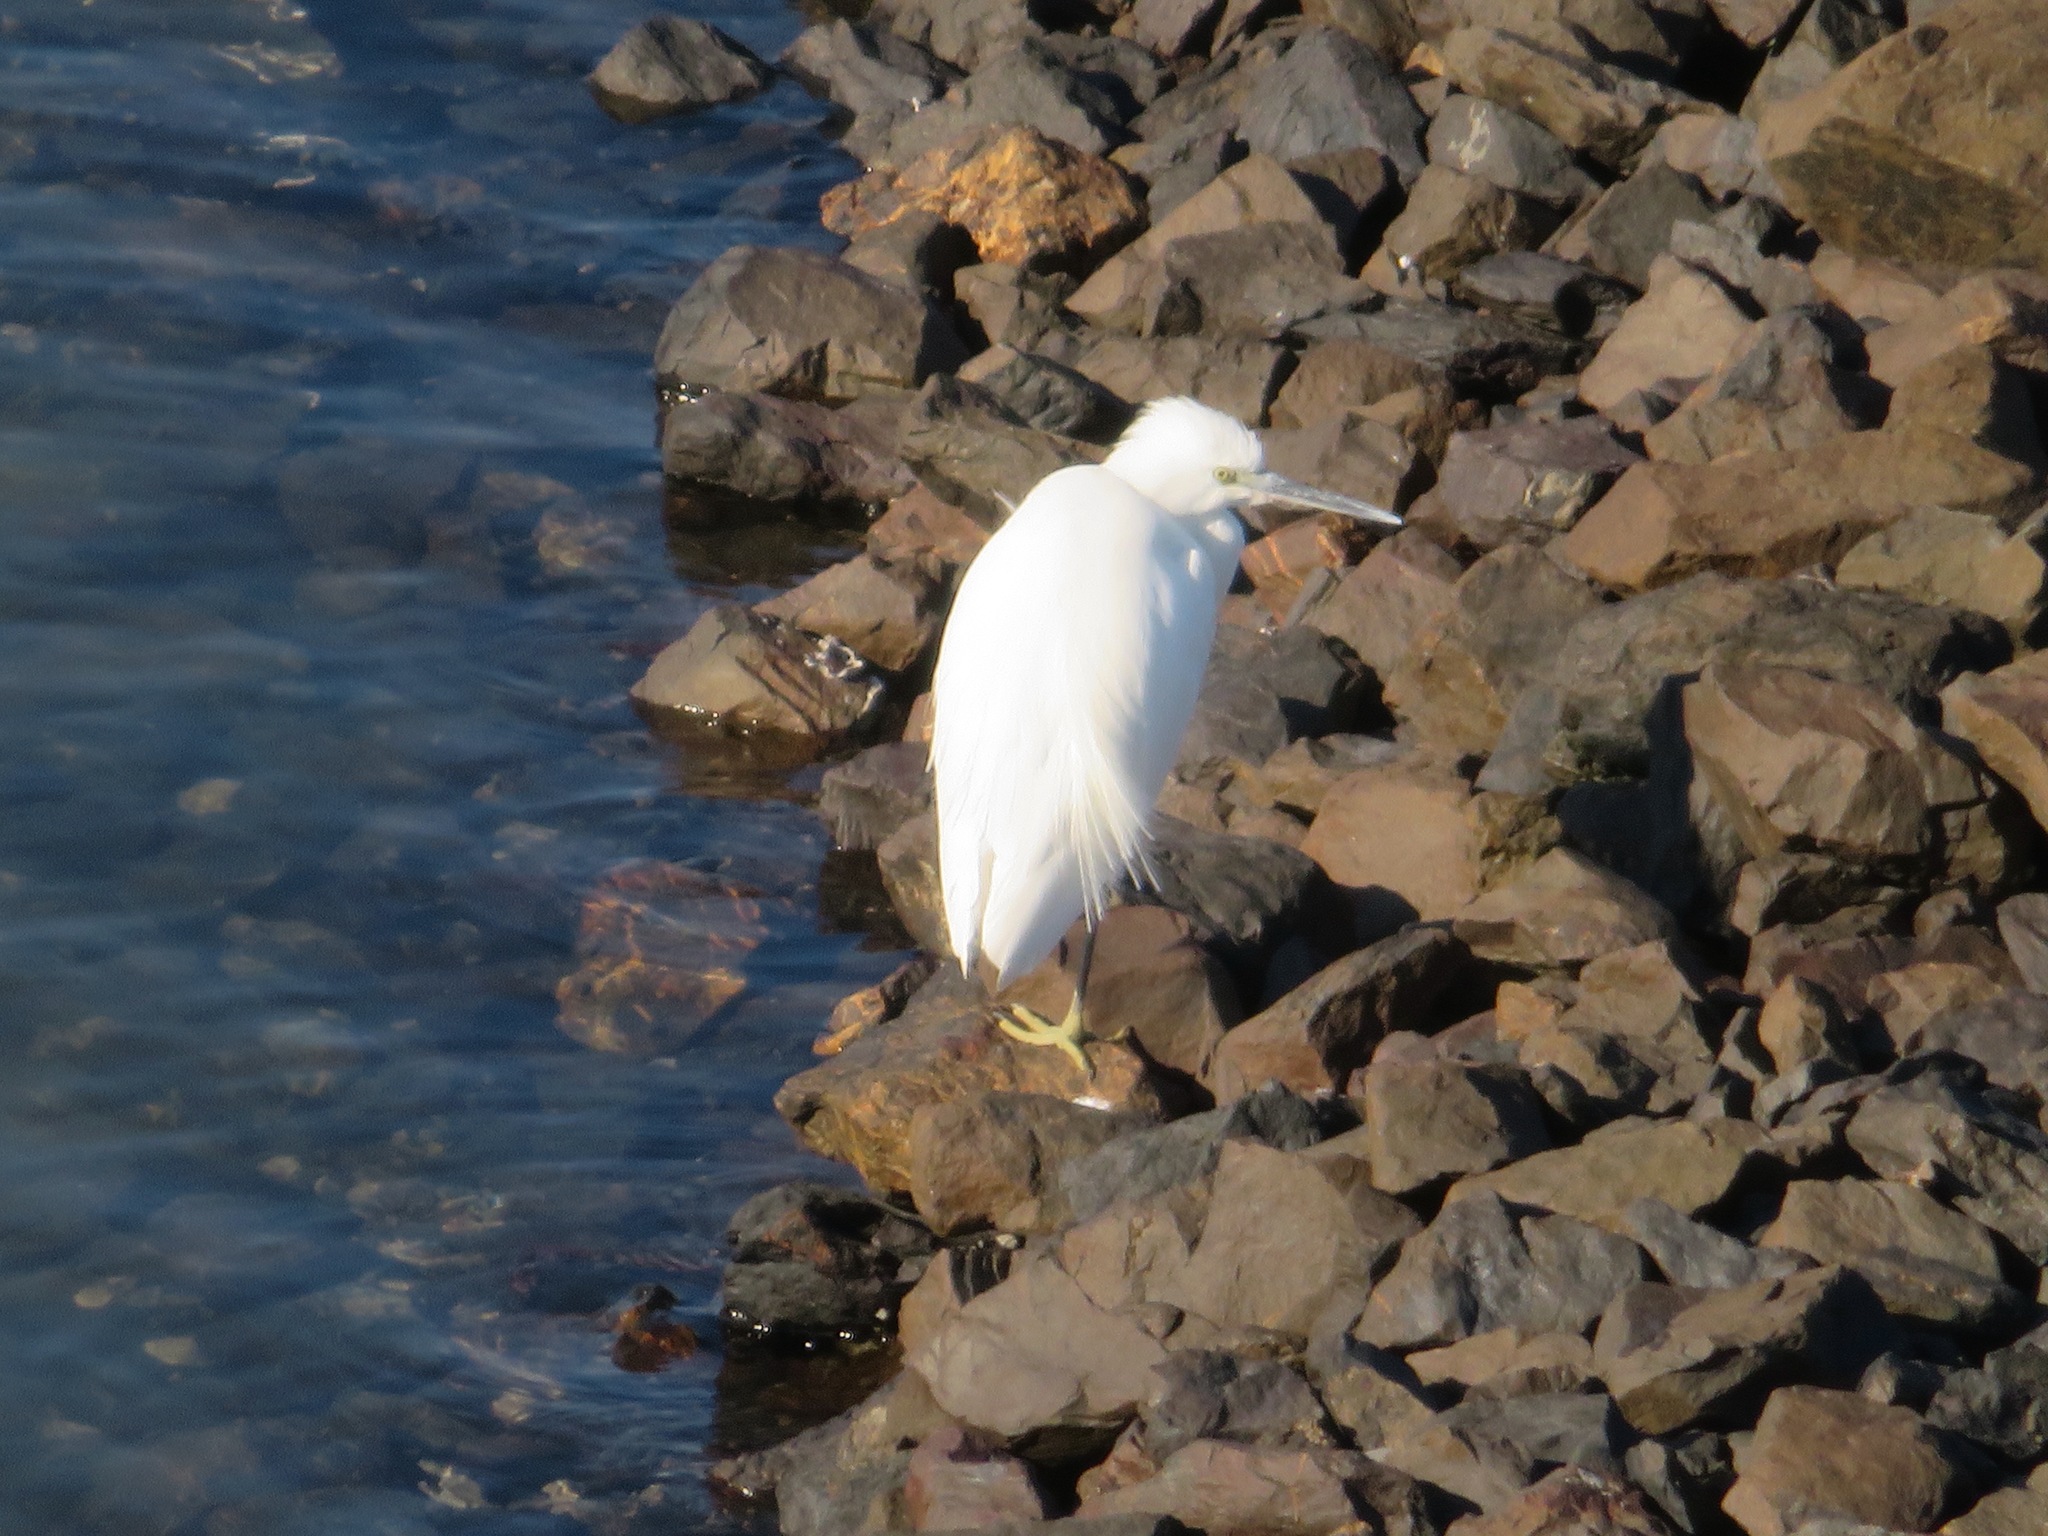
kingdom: Animalia
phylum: Chordata
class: Aves
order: Pelecaniformes
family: Ardeidae
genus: Egretta
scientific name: Egretta garzetta
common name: Little egret
